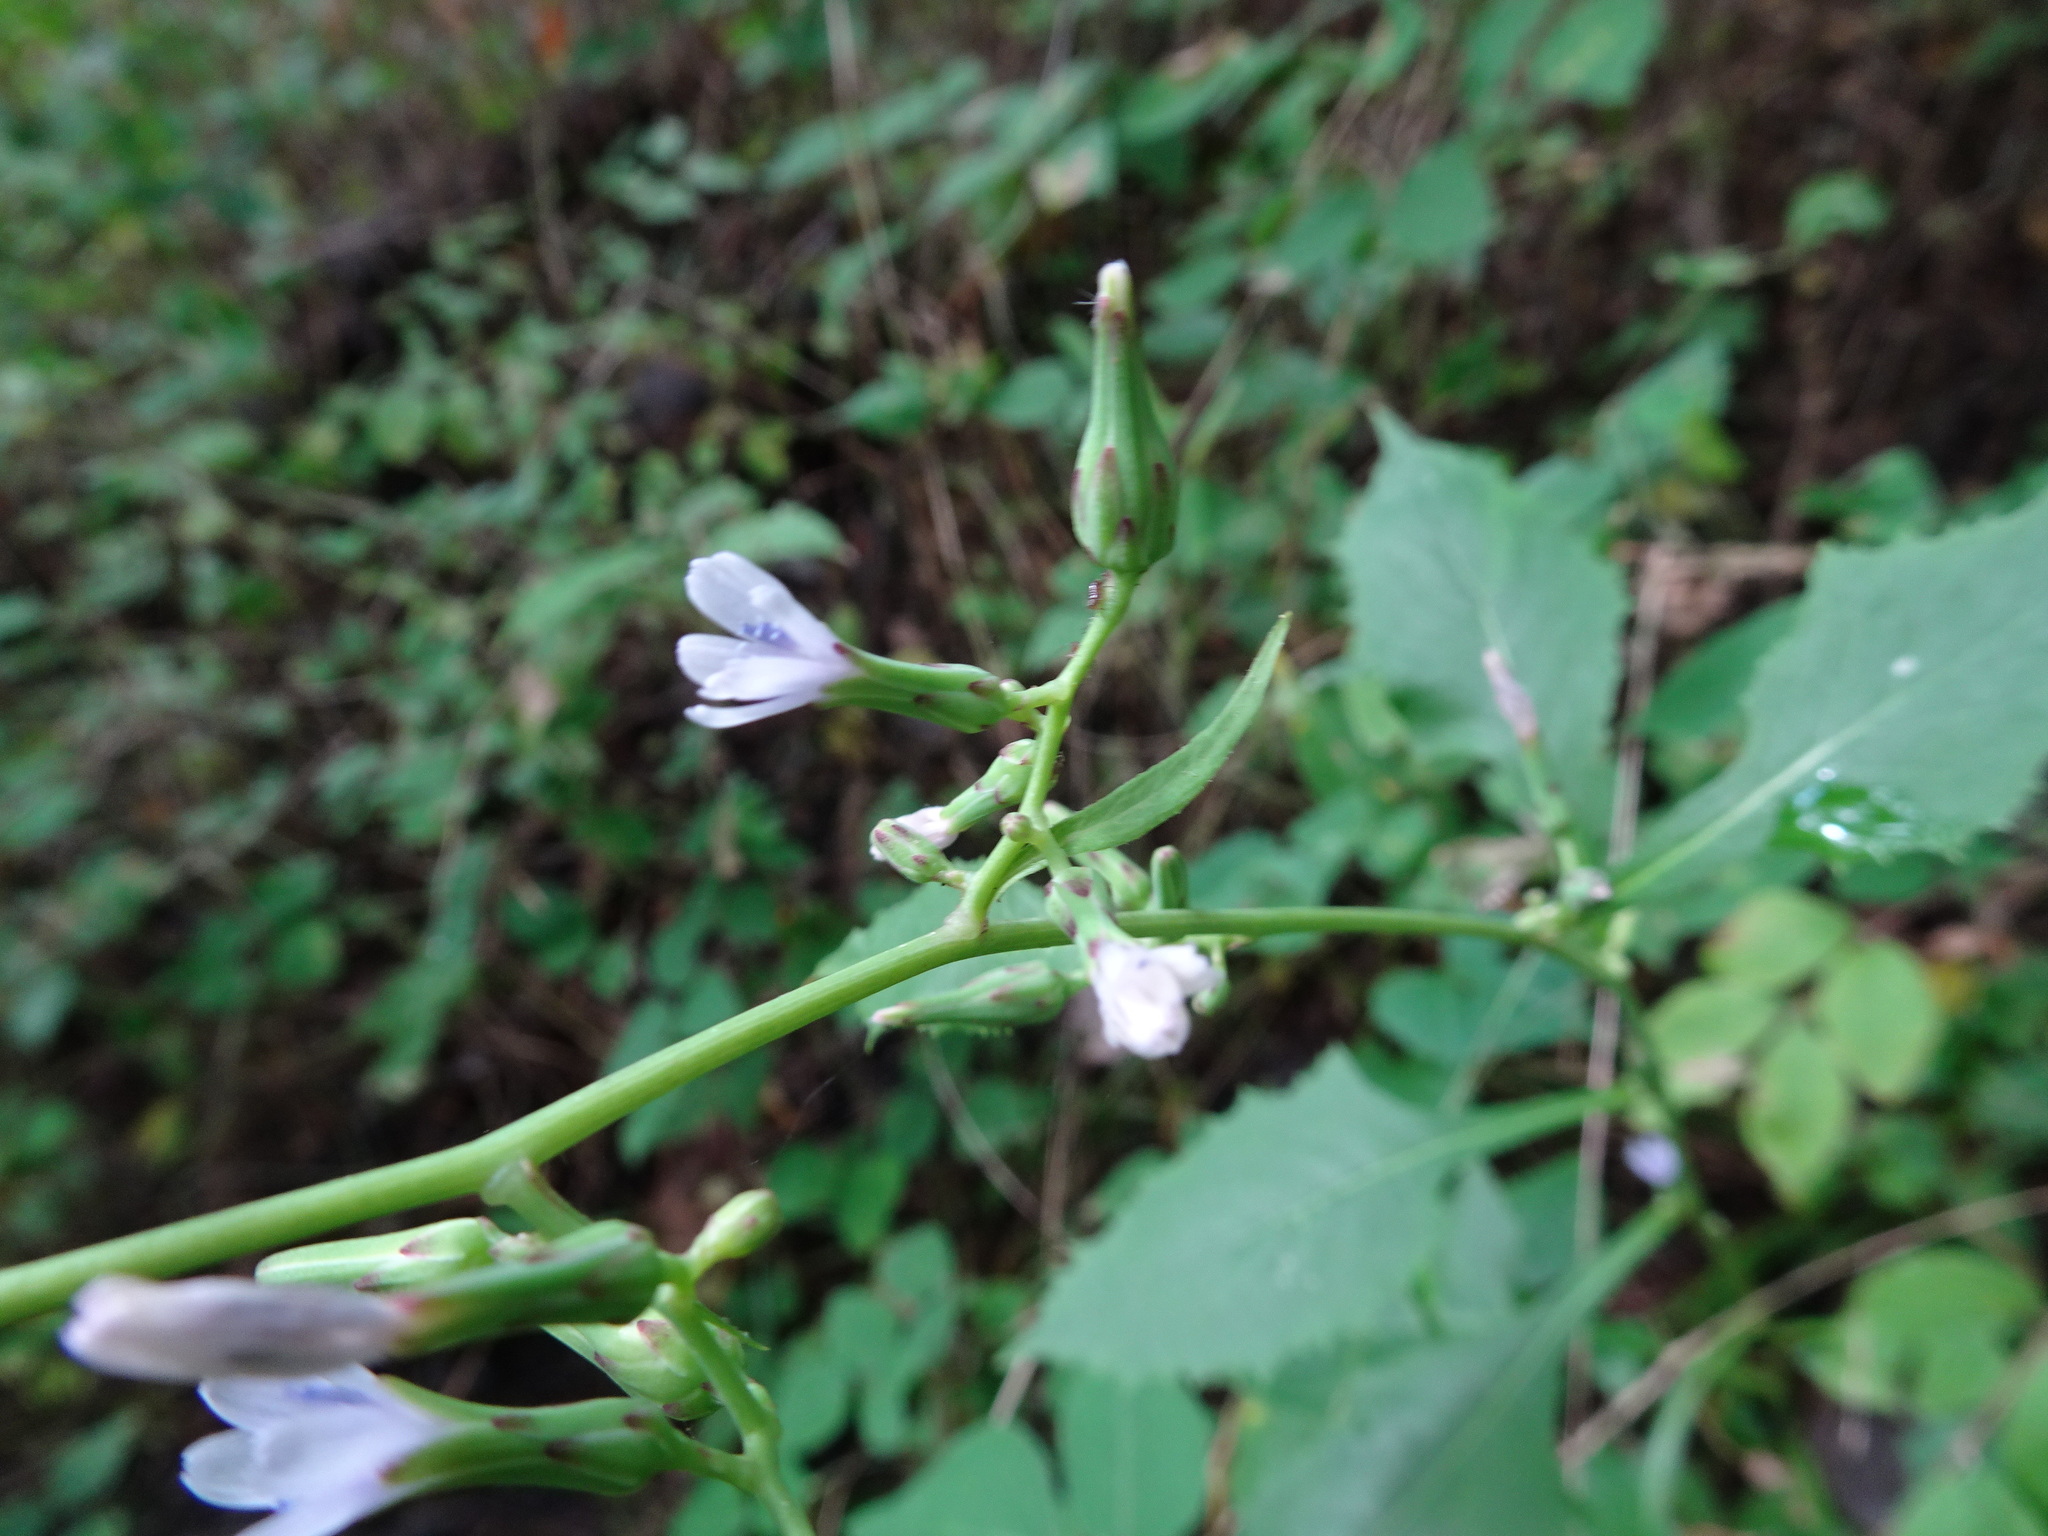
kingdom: Plantae
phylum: Tracheophyta
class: Magnoliopsida
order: Asterales
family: Asteraceae
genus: Lactuca
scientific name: Lactuca floridana
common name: Woodland lettuce
